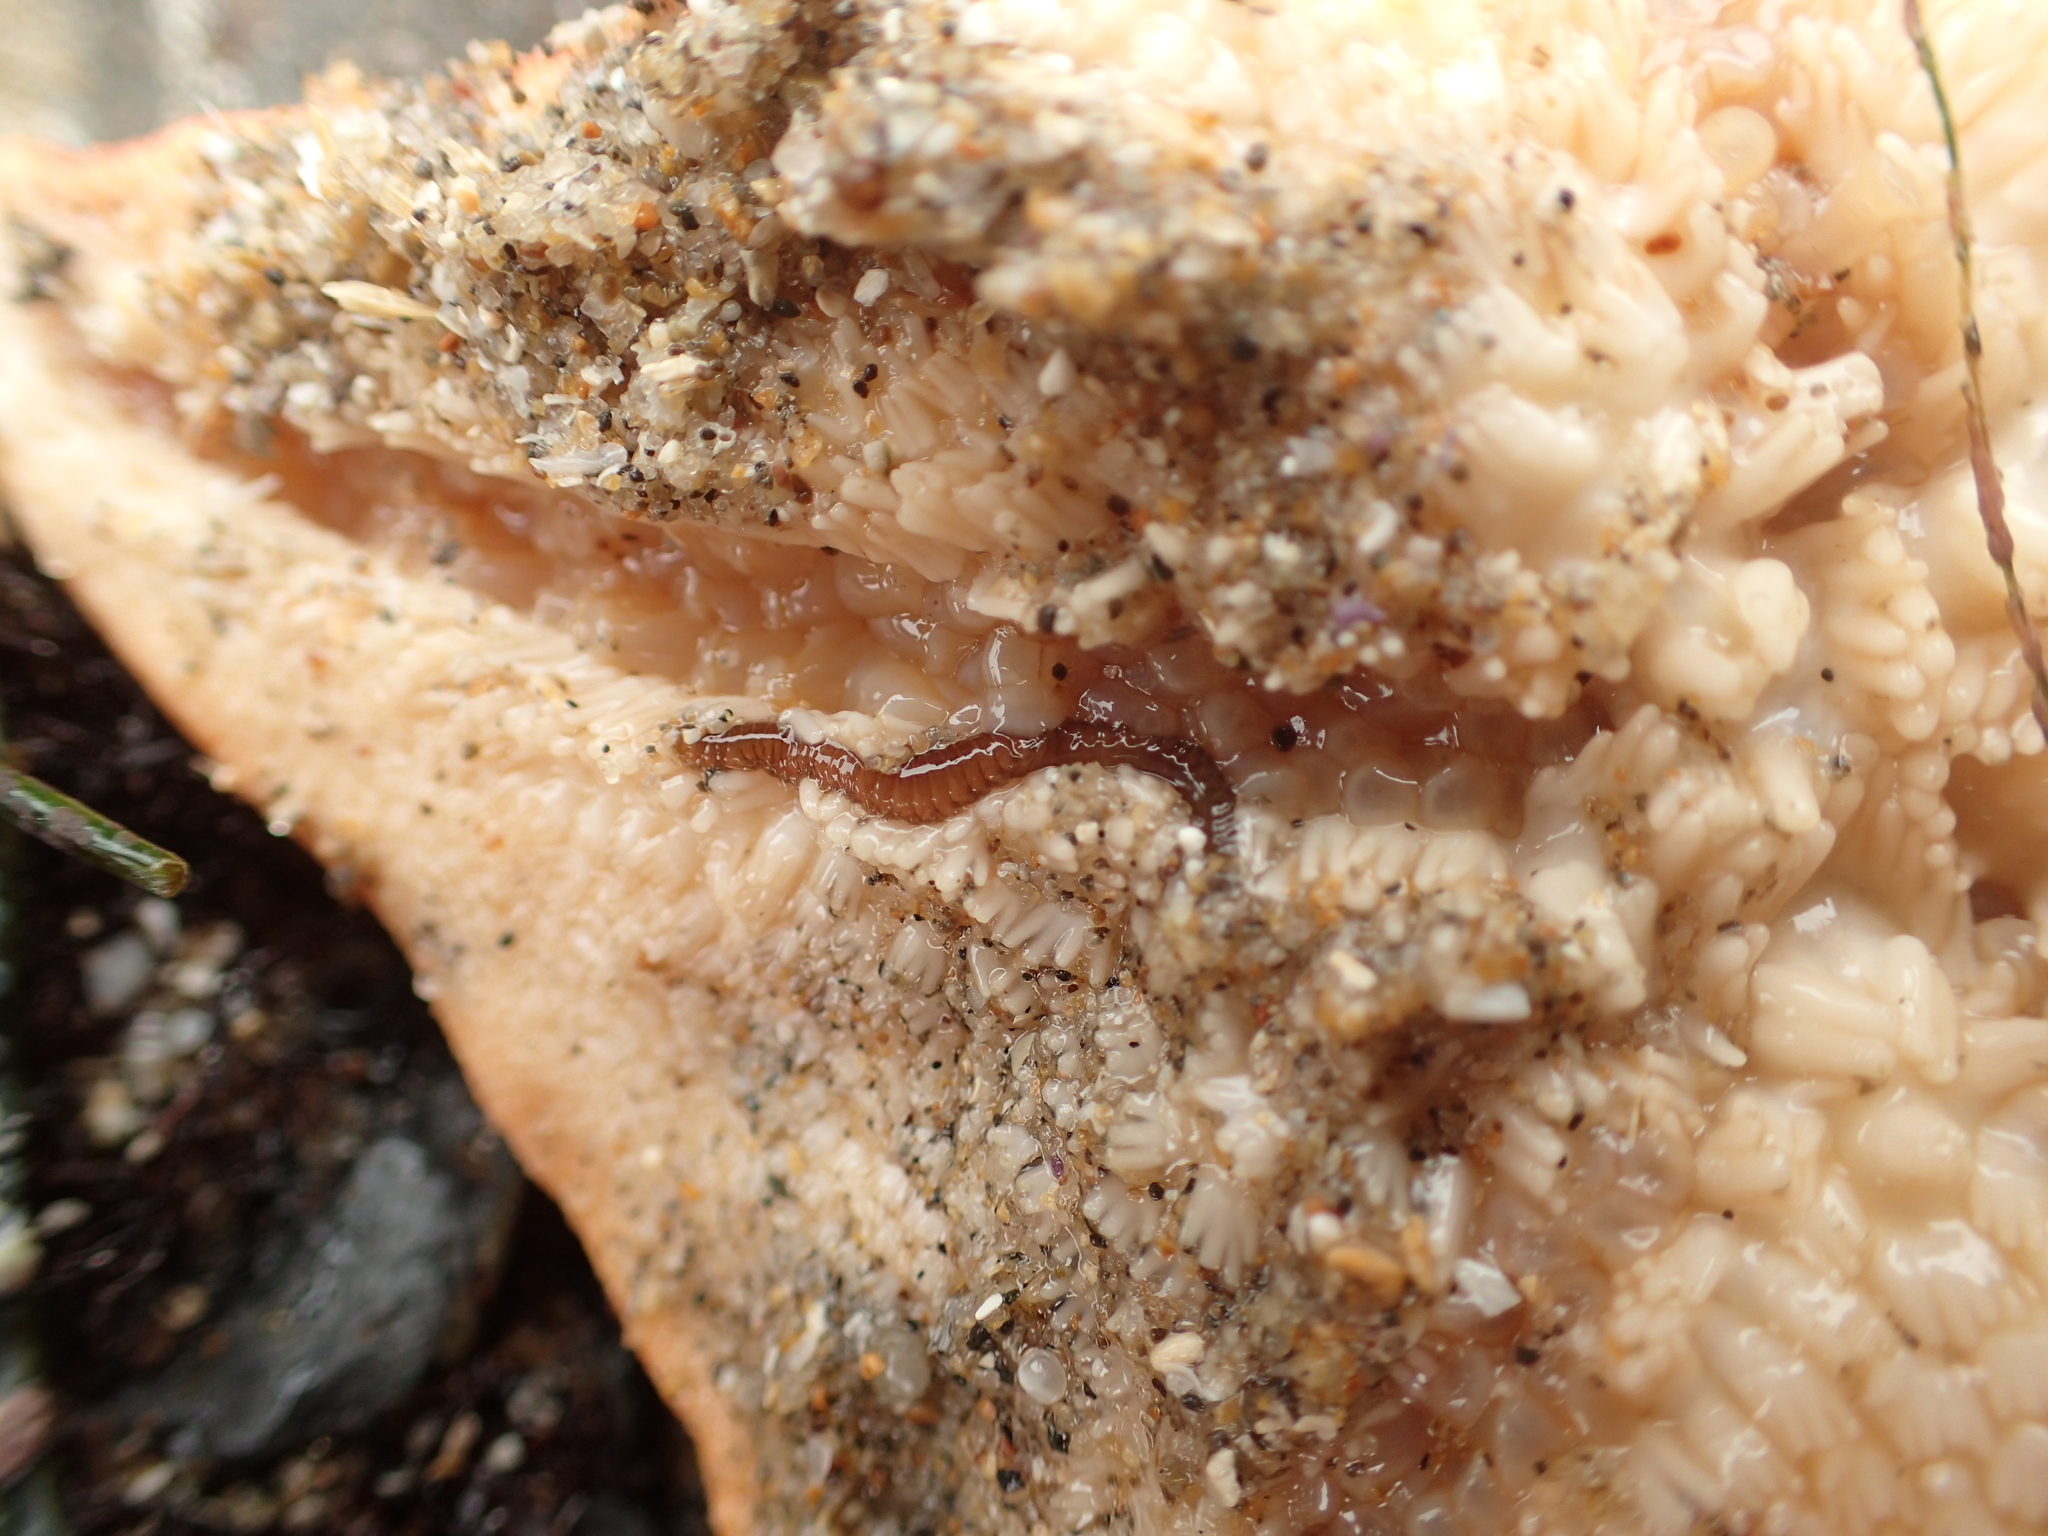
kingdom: Animalia
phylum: Annelida
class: Polychaeta
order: Phyllodocida
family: Hesionidae
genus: Oxydromus
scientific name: Oxydromus pugettensis
